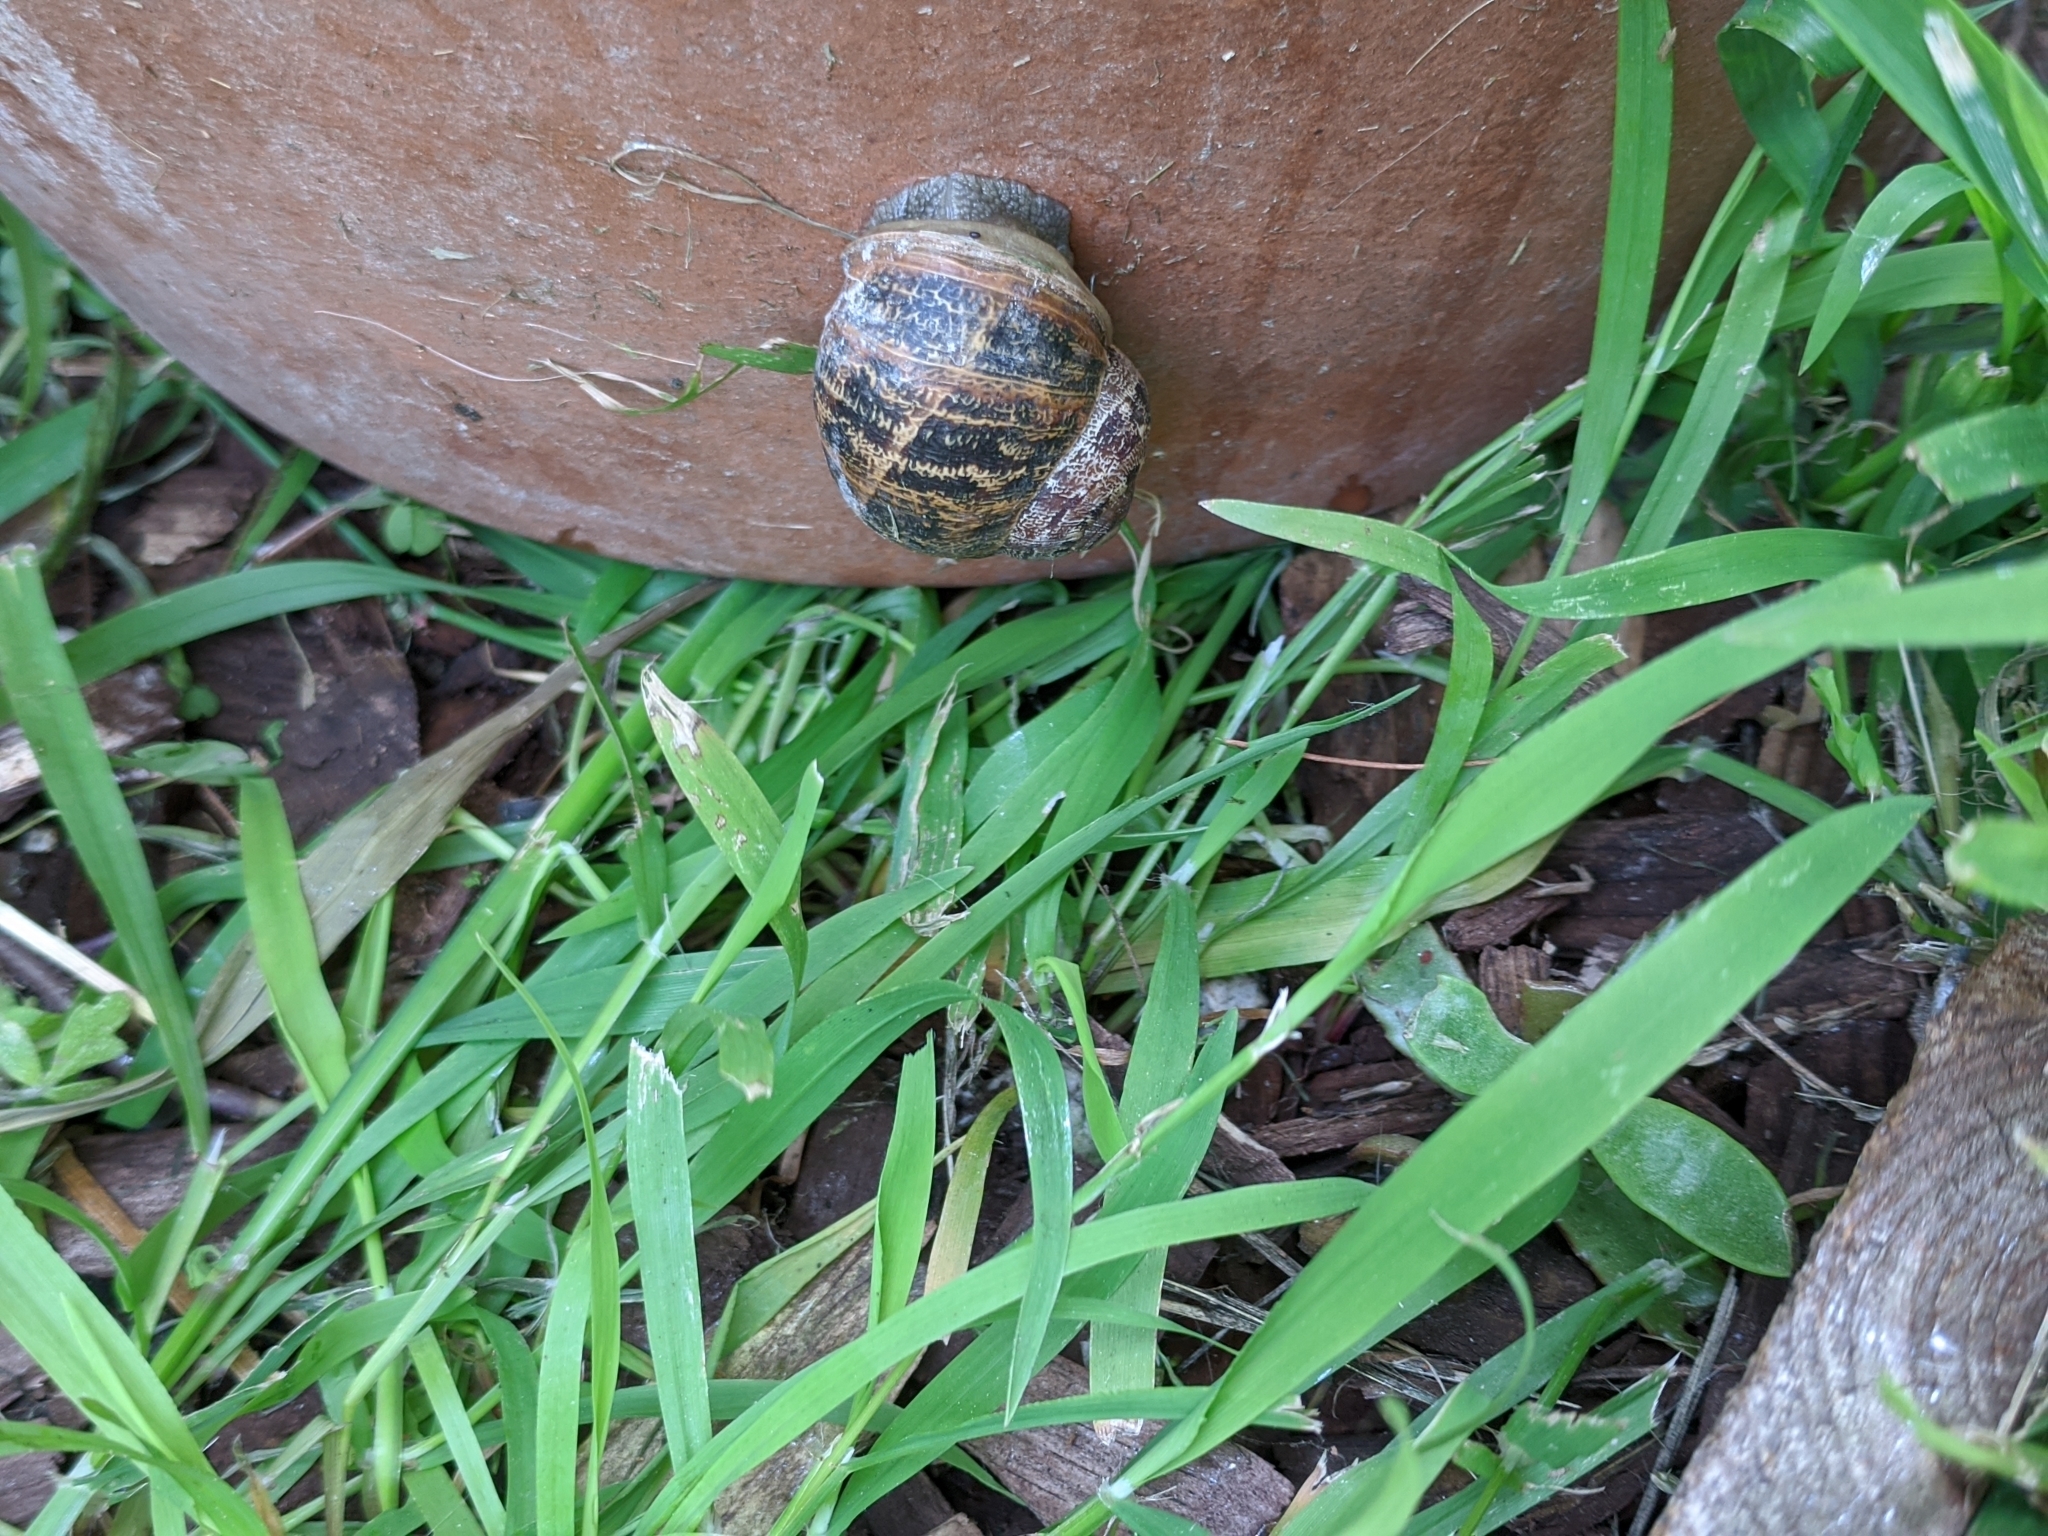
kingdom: Animalia
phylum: Mollusca
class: Gastropoda
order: Stylommatophora
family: Helicidae
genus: Cornu
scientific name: Cornu aspersum
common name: Brown garden snail
